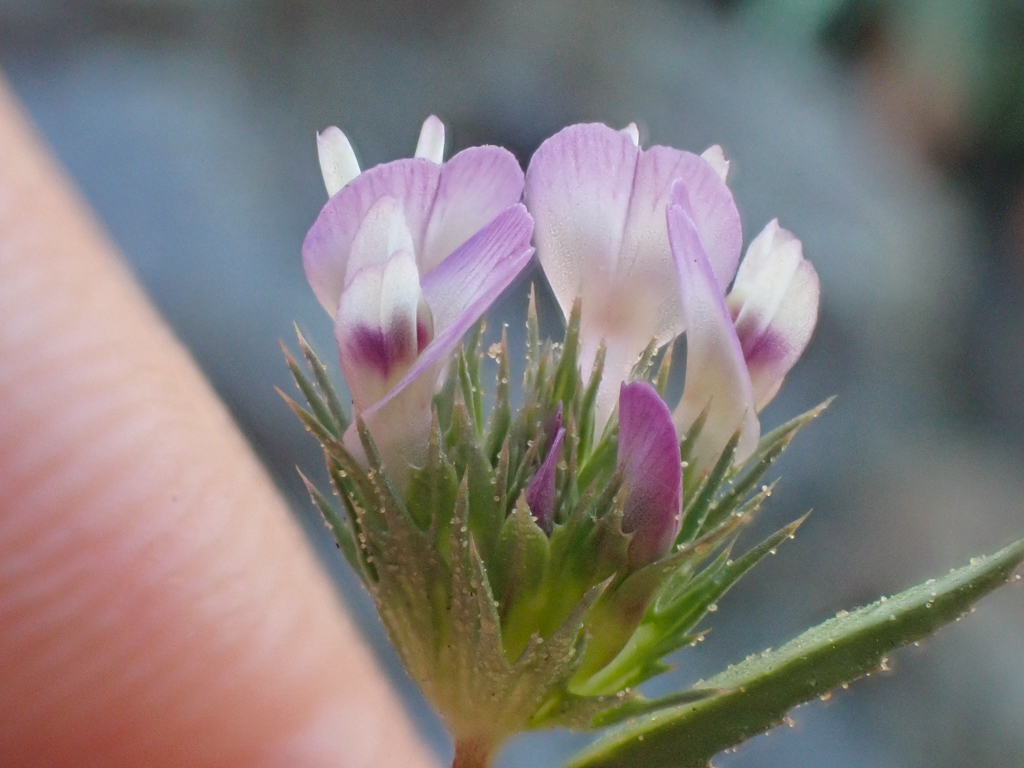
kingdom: Plantae
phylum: Tracheophyta
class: Magnoliopsida
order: Fabales
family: Fabaceae
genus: Trifolium
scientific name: Trifolium willdenovii
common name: Tomcat clover
